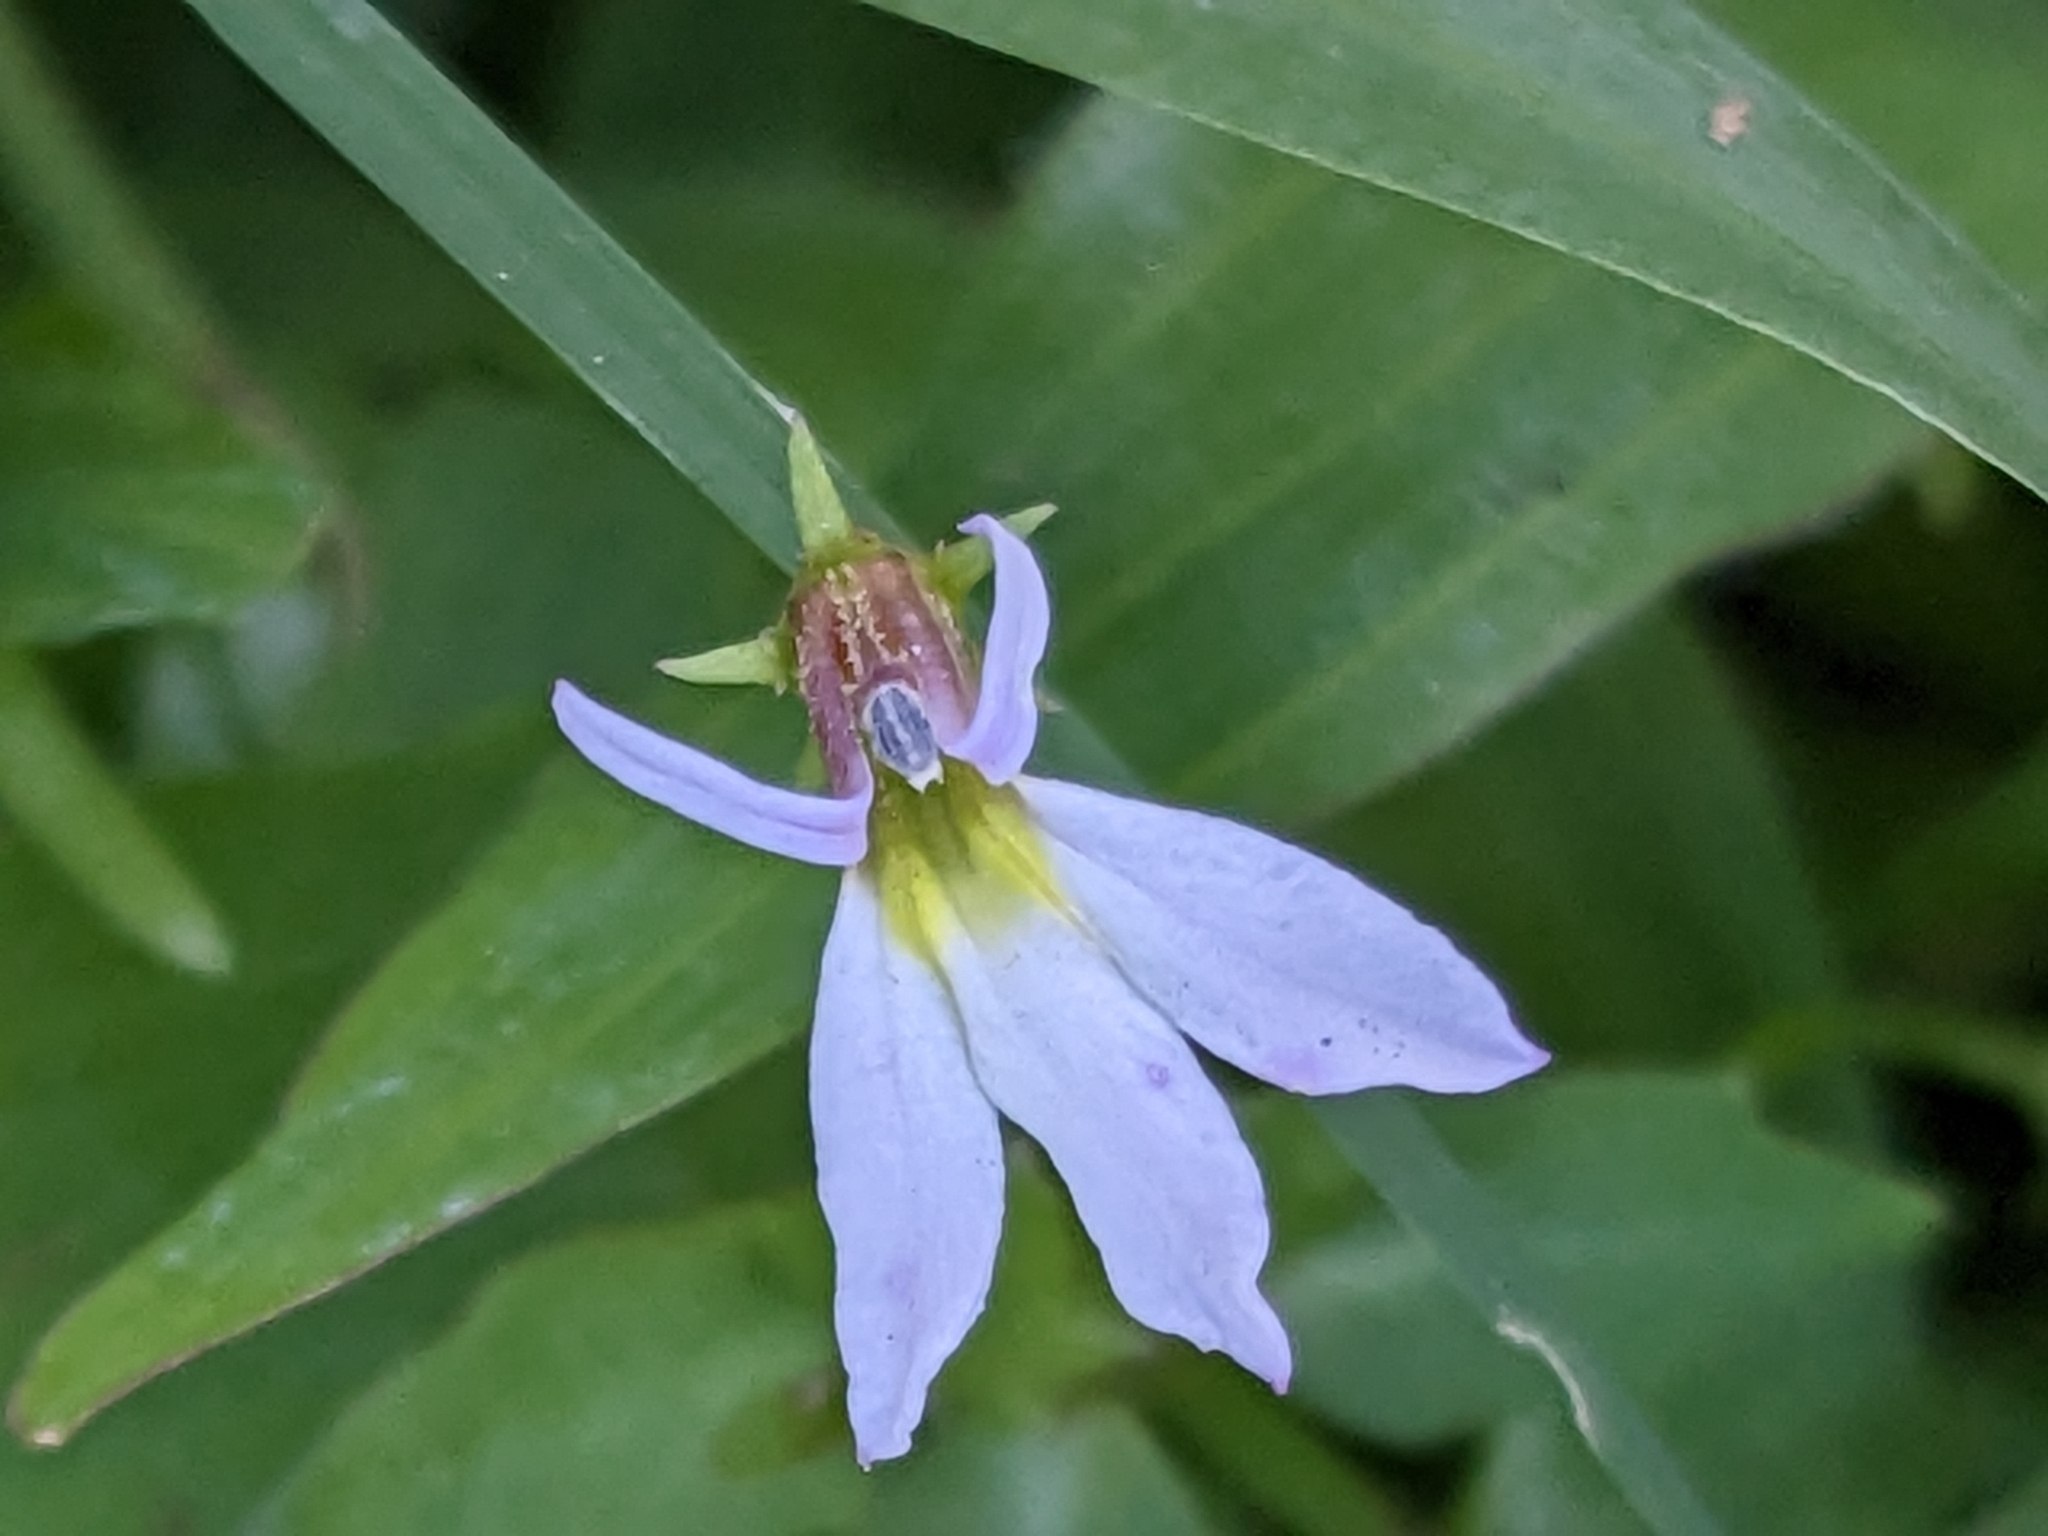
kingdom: Plantae
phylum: Tracheophyta
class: Magnoliopsida
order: Asterales
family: Campanulaceae
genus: Lobelia
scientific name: Lobelia purpurascens
